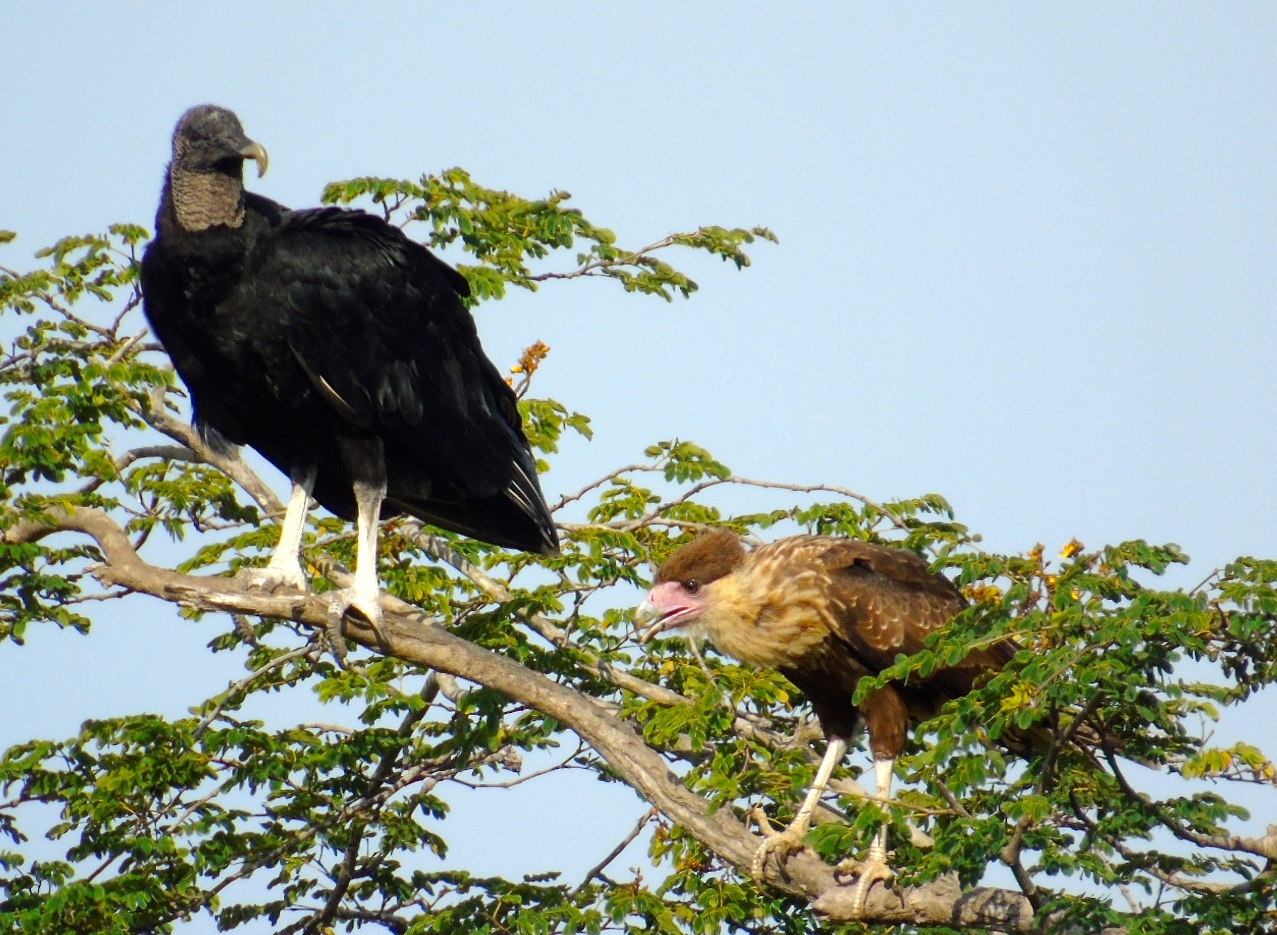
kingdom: Animalia
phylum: Chordata
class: Aves
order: Falconiformes
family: Falconidae
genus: Caracara
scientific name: Caracara plancus
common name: Southern caracara
